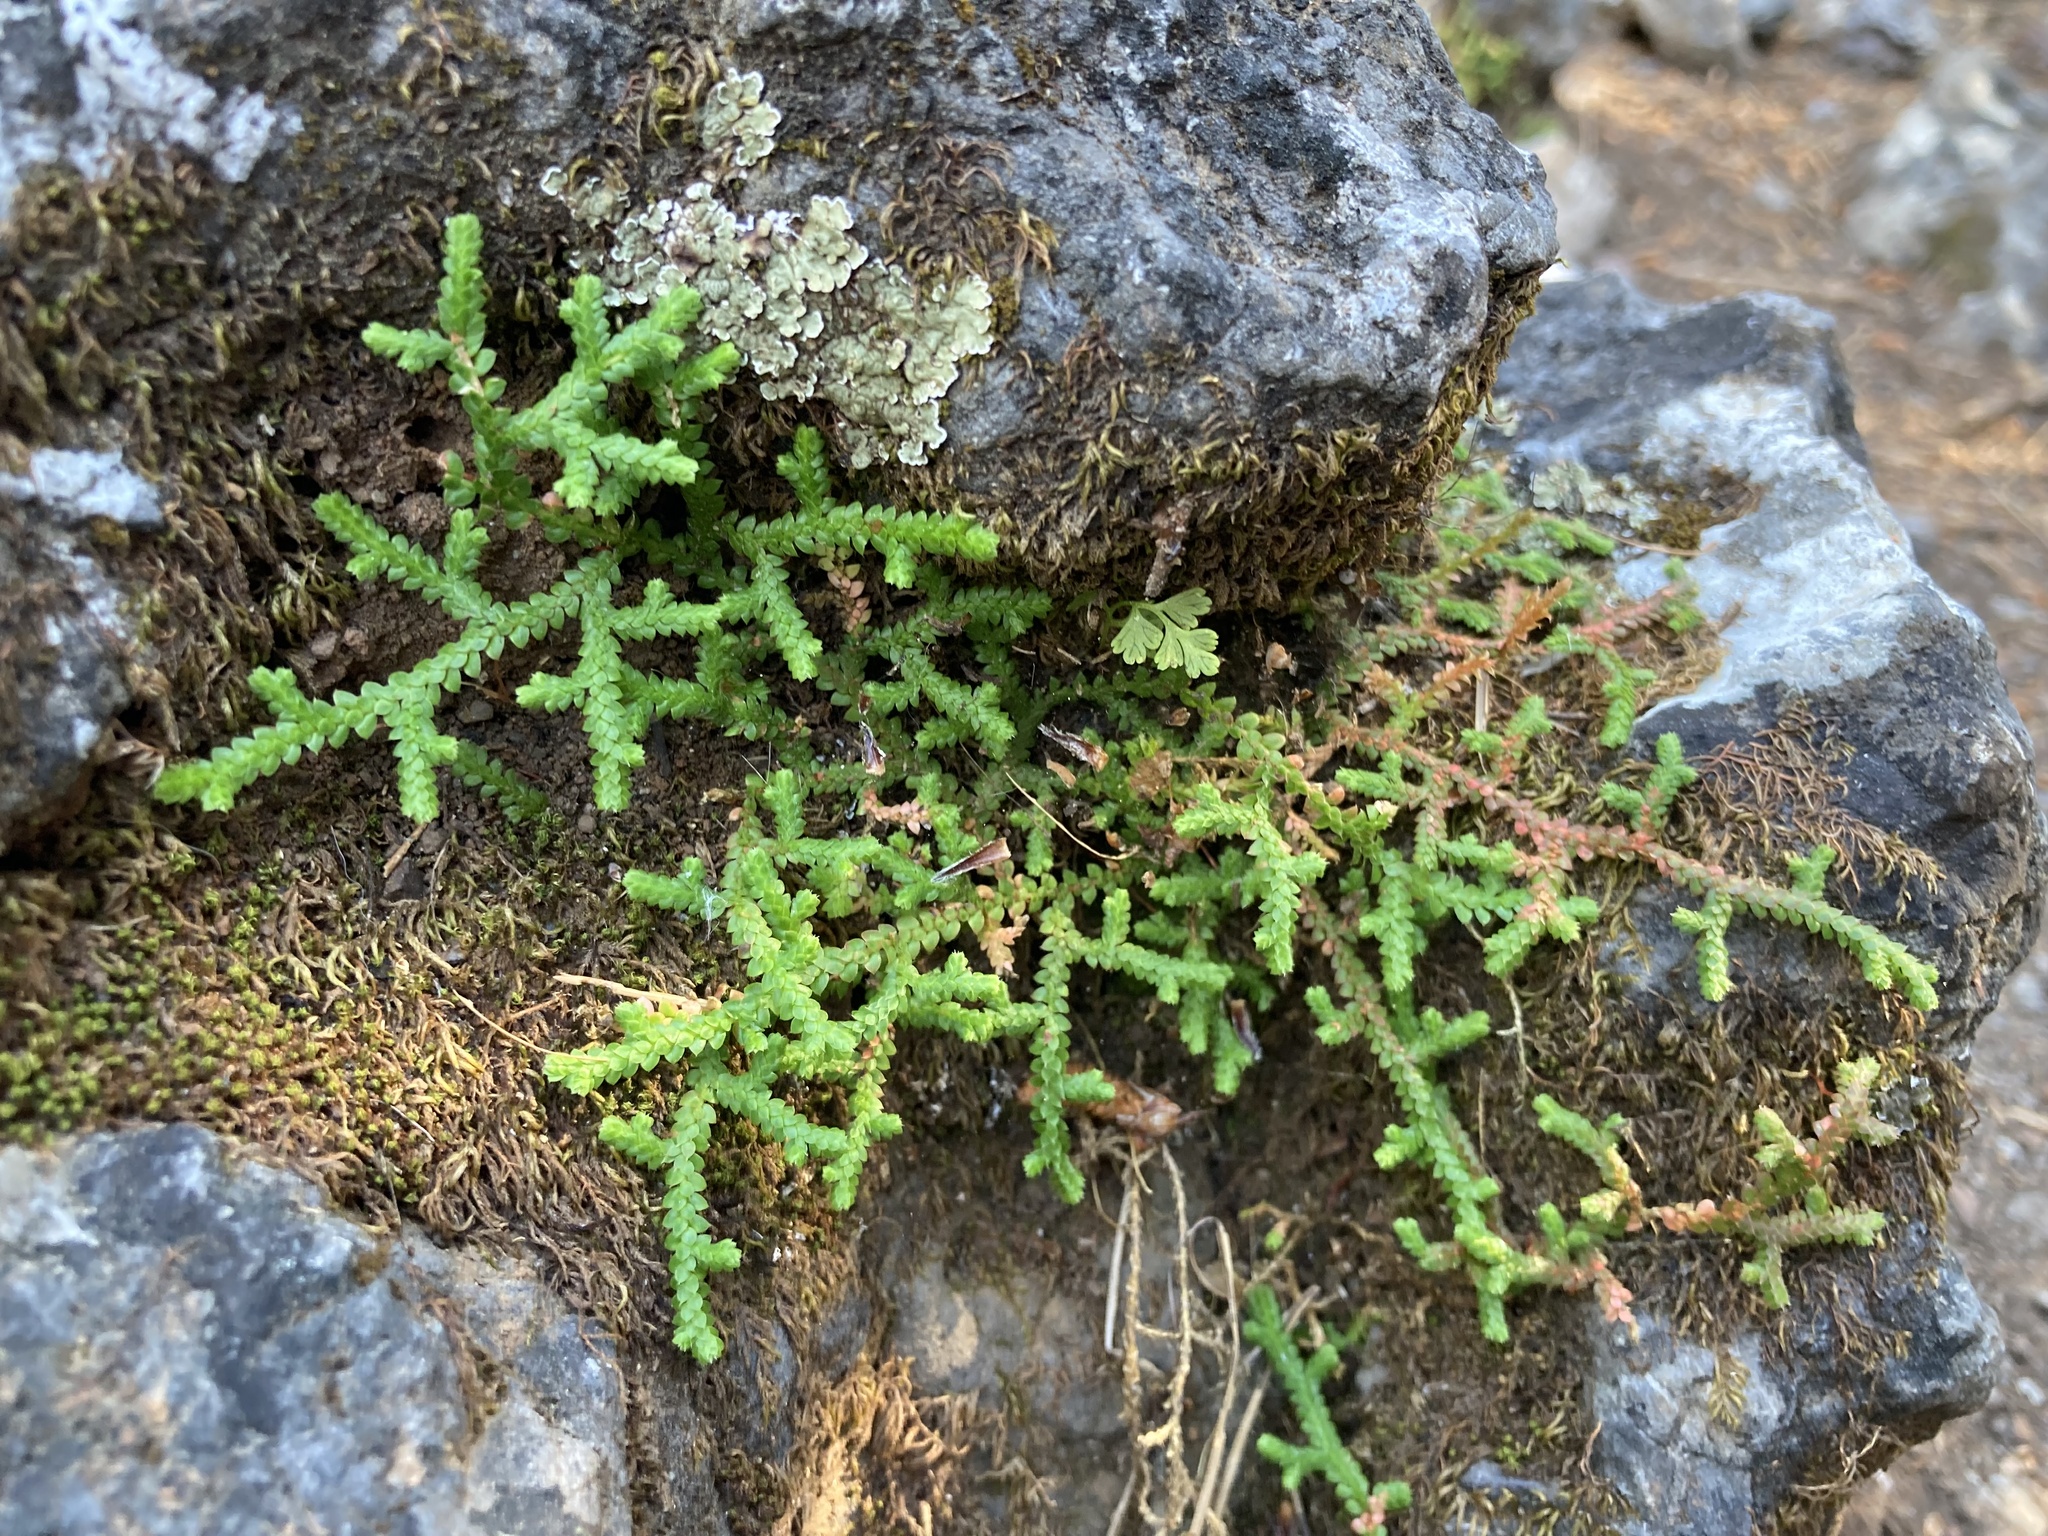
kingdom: Plantae
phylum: Tracheophyta
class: Lycopodiopsida
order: Selaginellales
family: Selaginellaceae
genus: Selaginella
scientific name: Selaginella denticulata
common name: Toothed-leaved clubmoss
